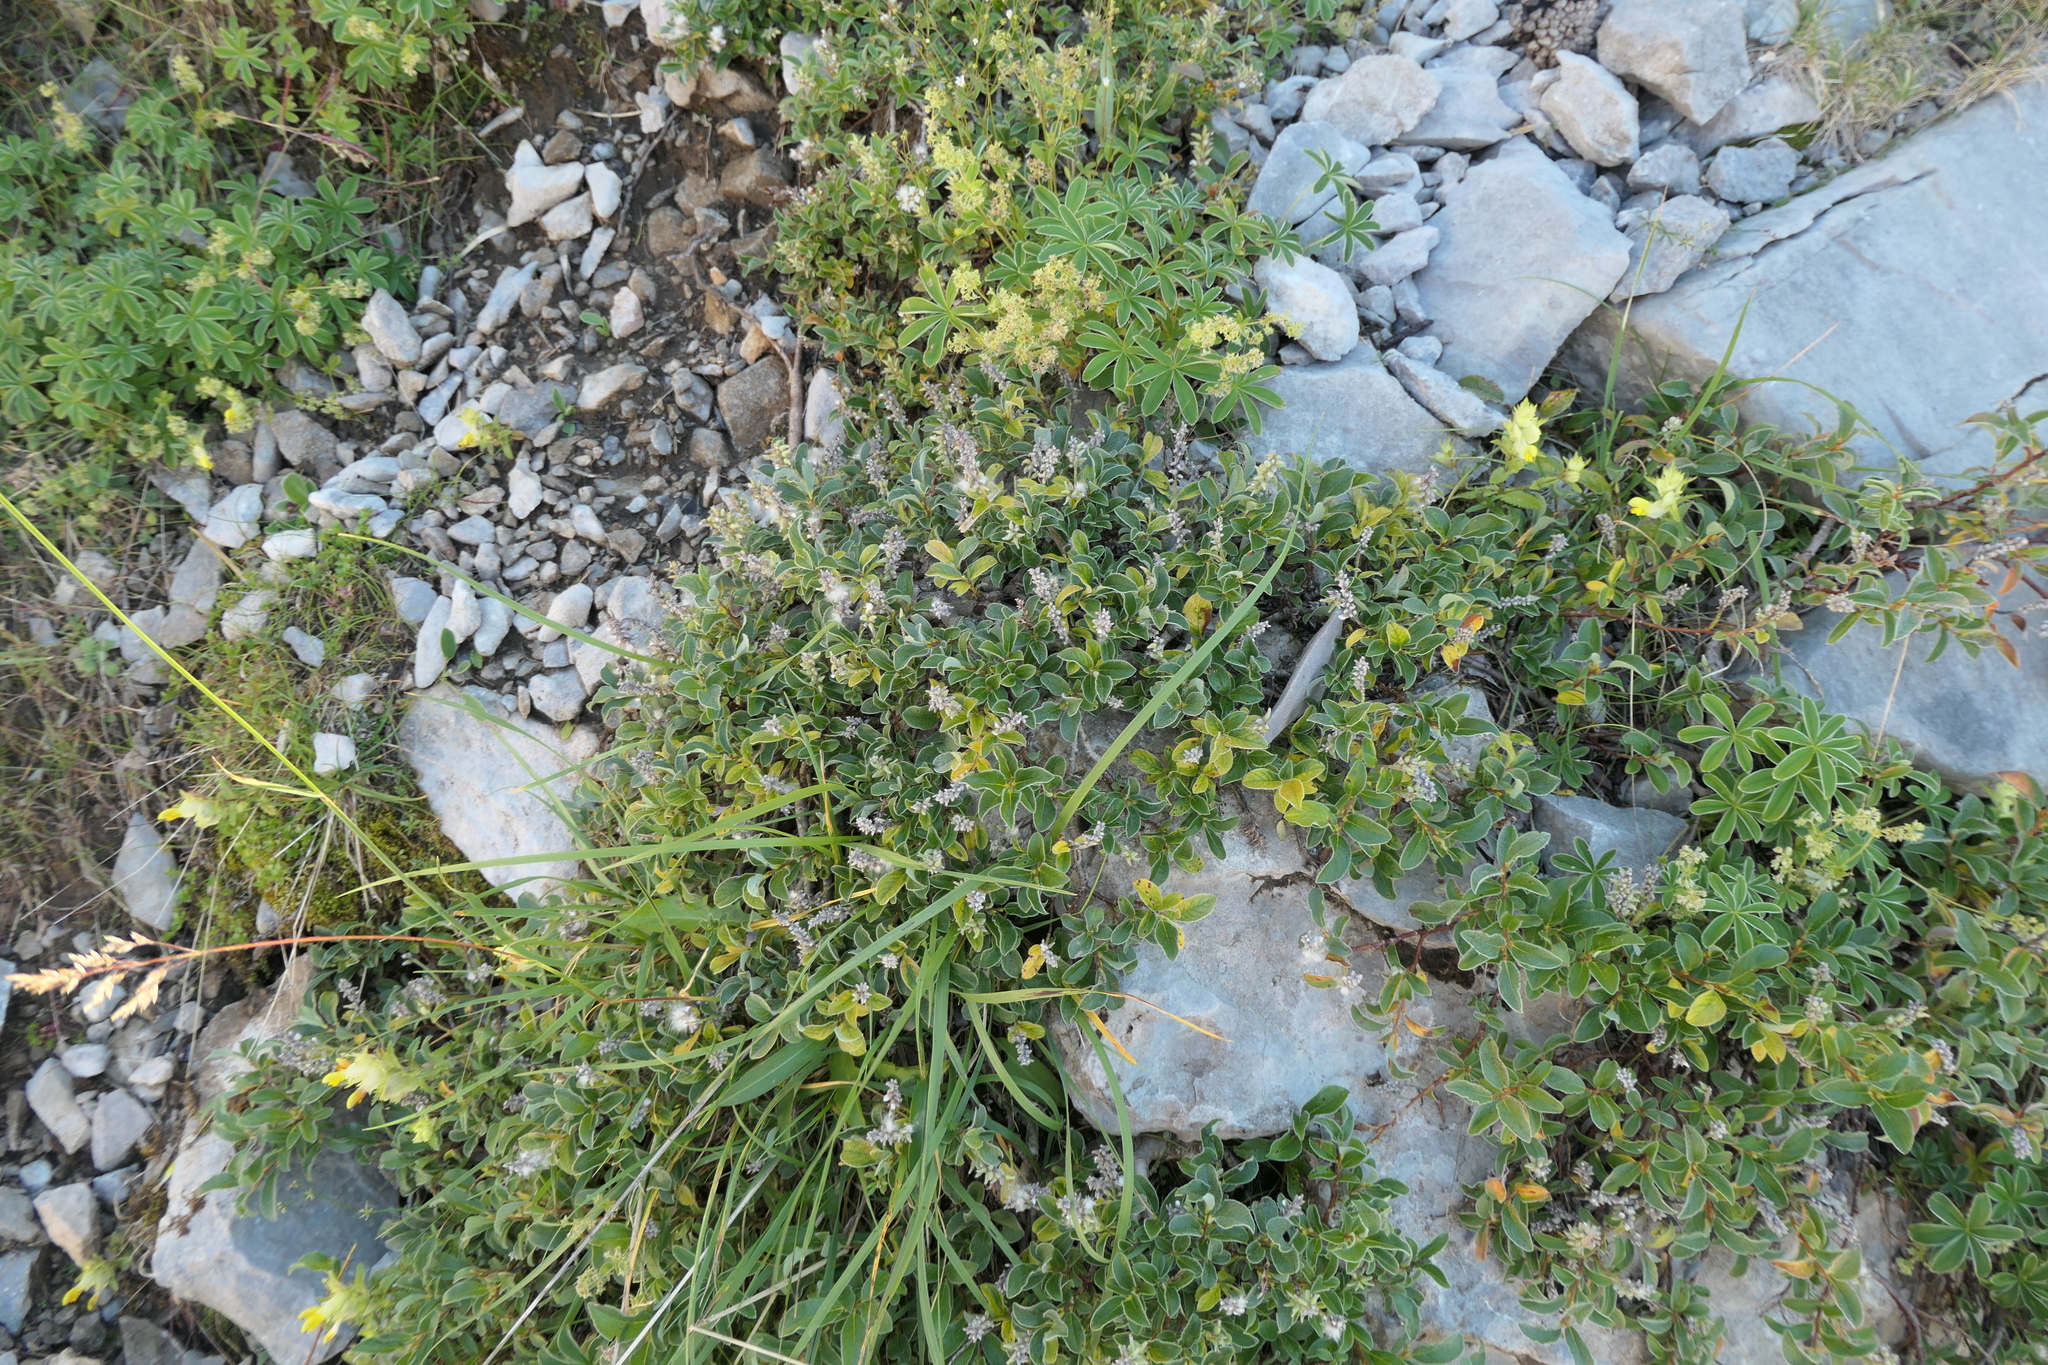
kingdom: Plantae
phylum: Tracheophyta
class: Magnoliopsida
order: Malpighiales
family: Salicaceae
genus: Salix
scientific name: Salix pyrenaica
